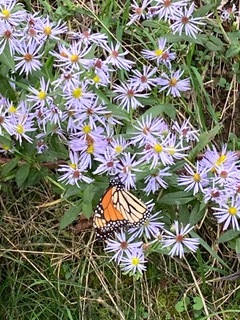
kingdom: Animalia
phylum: Arthropoda
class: Insecta
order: Lepidoptera
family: Nymphalidae
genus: Danaus
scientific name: Danaus plexippus
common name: Monarch
